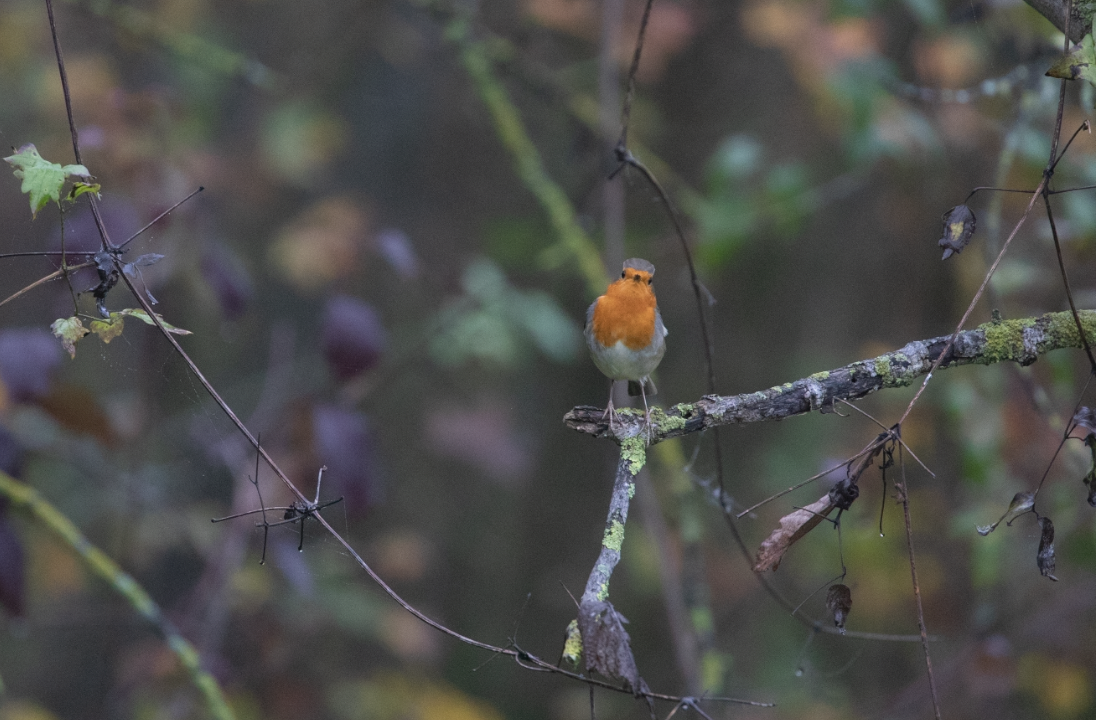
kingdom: Animalia
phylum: Chordata
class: Aves
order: Passeriformes
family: Muscicapidae
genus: Erithacus
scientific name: Erithacus rubecula
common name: European robin
